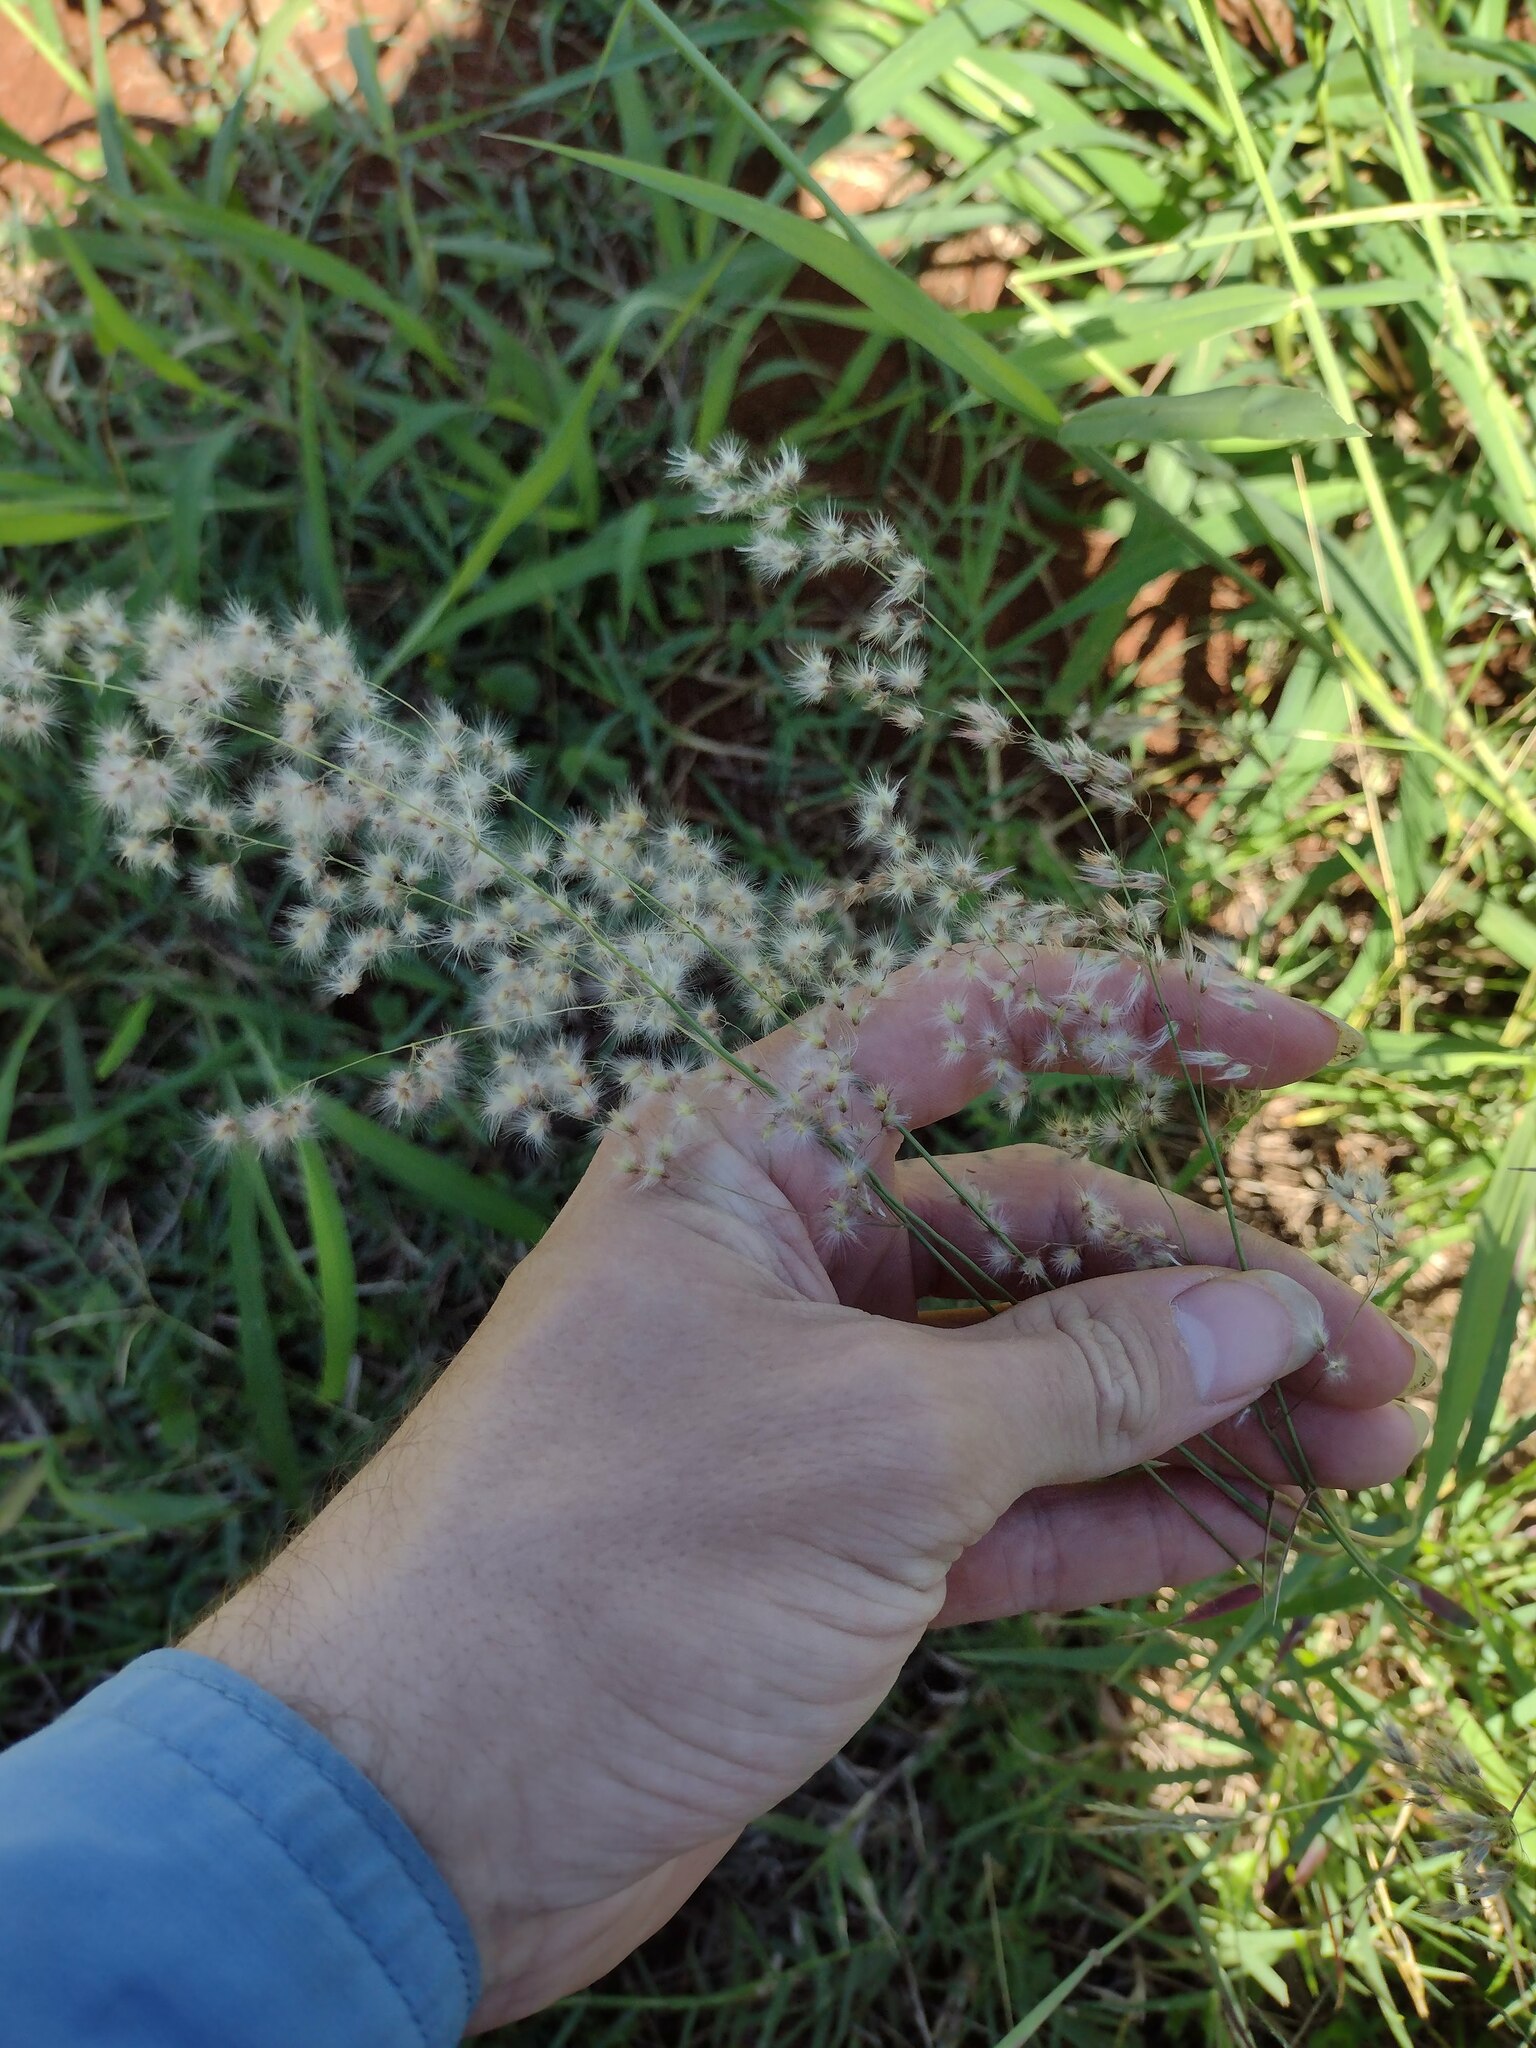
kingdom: Plantae
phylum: Tracheophyta
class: Liliopsida
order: Poales
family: Poaceae
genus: Melinis
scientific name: Melinis repens
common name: Rose natal grass
